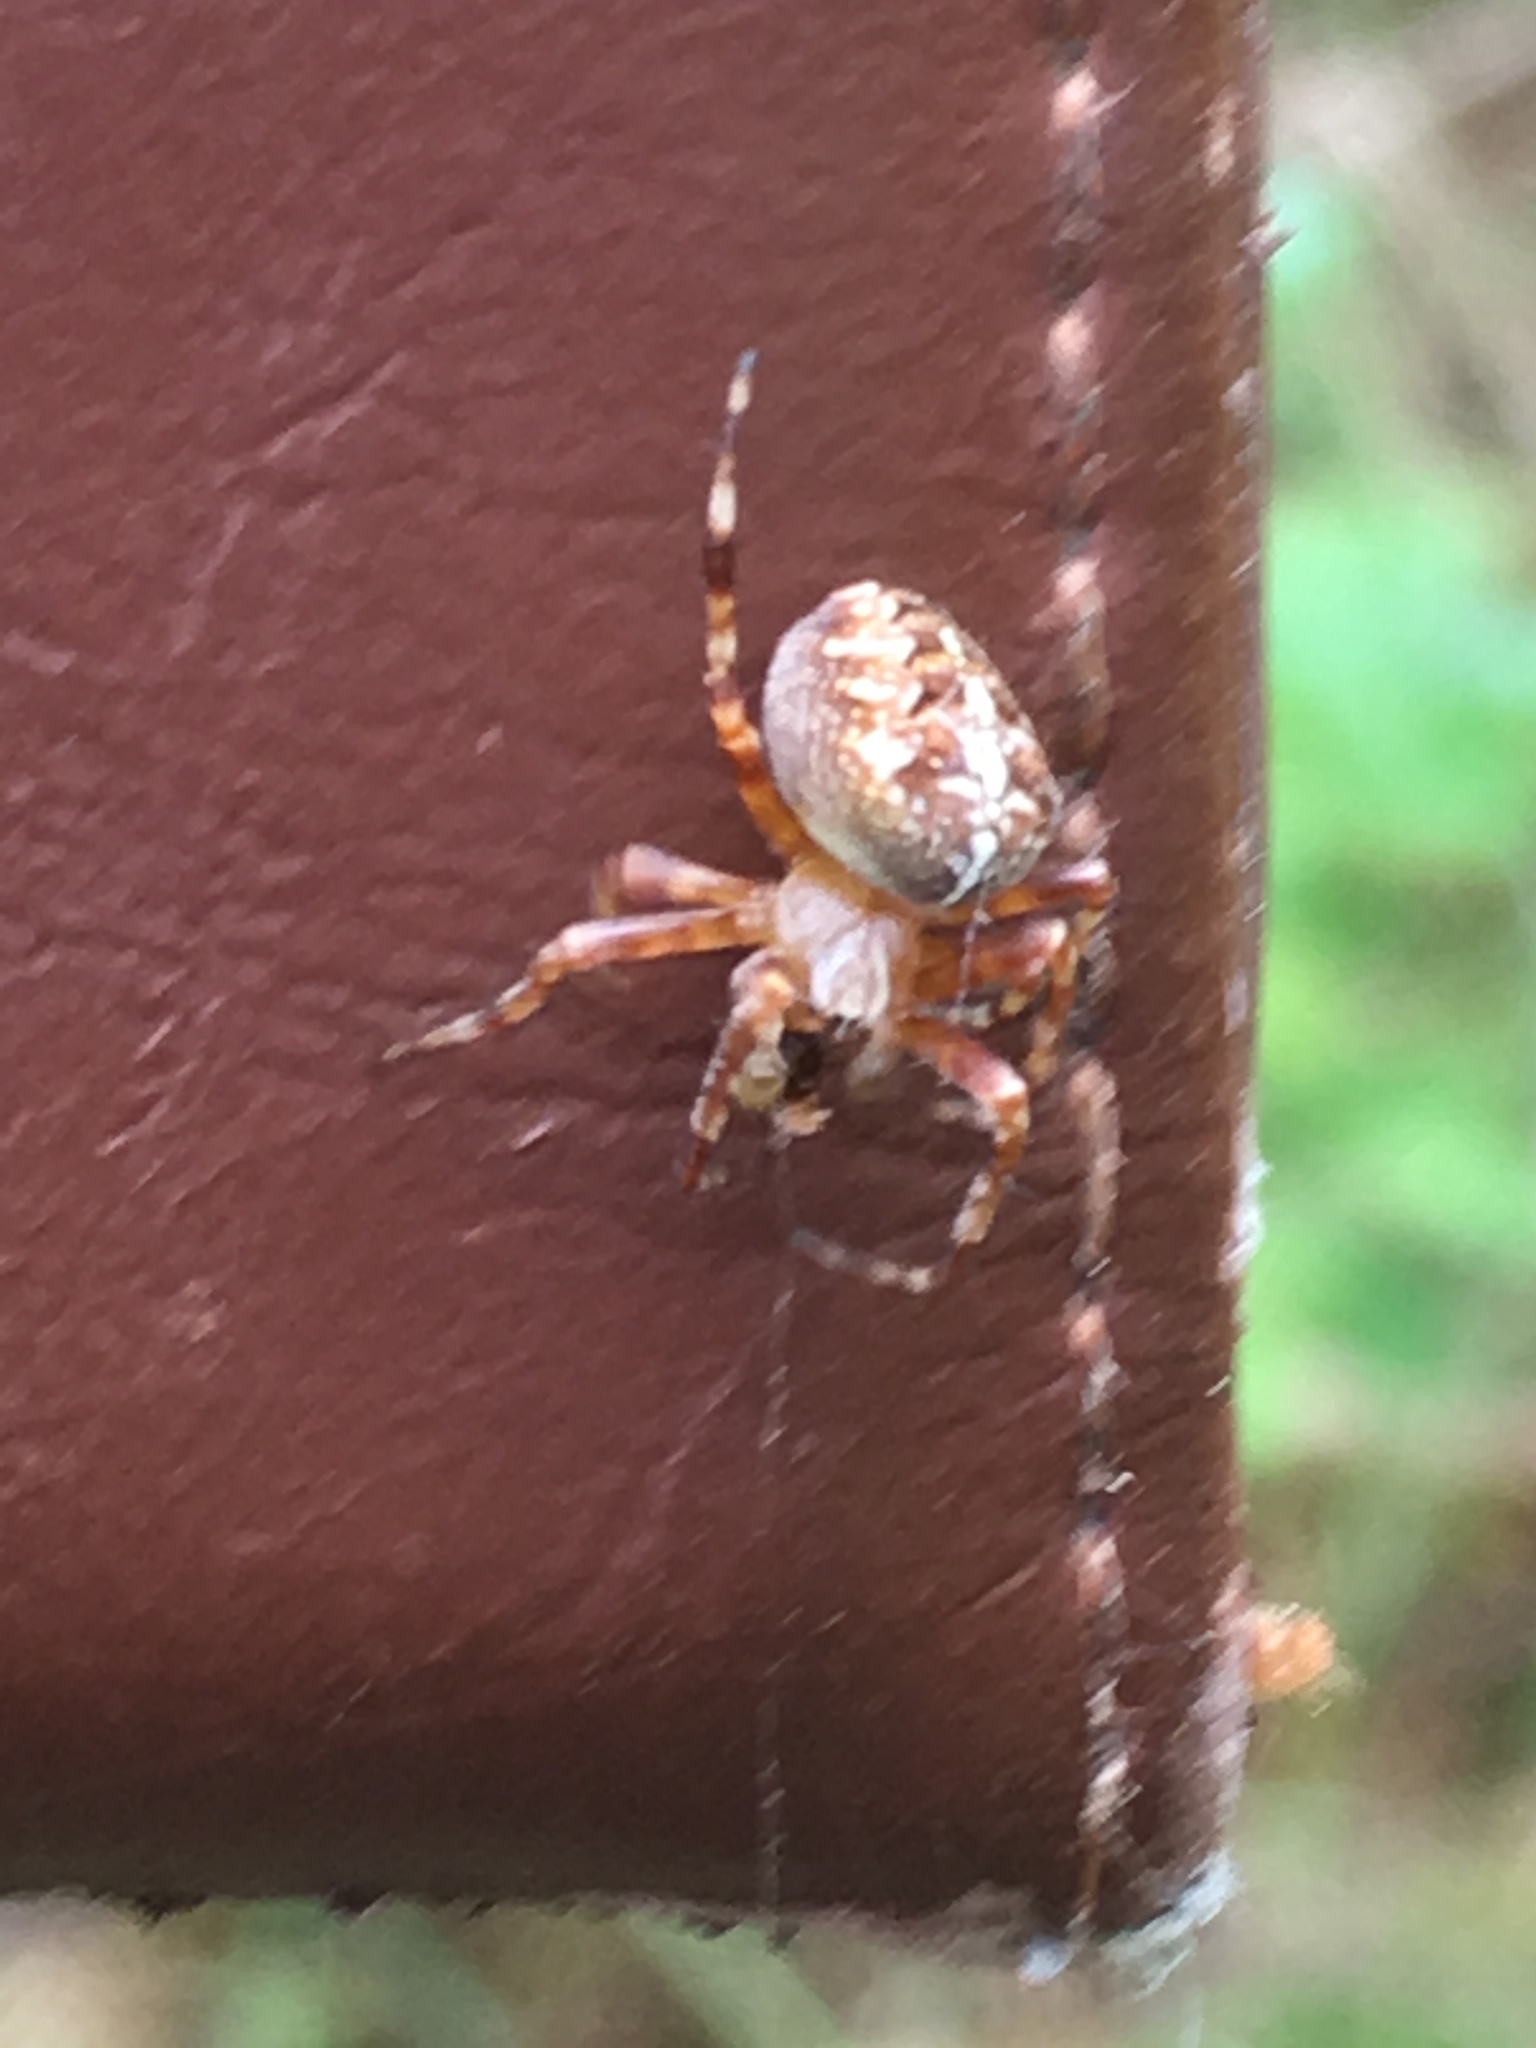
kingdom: Animalia
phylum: Arthropoda
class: Arachnida
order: Araneae
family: Araneidae
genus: Araneus
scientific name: Araneus diadematus
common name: Cross orbweaver
